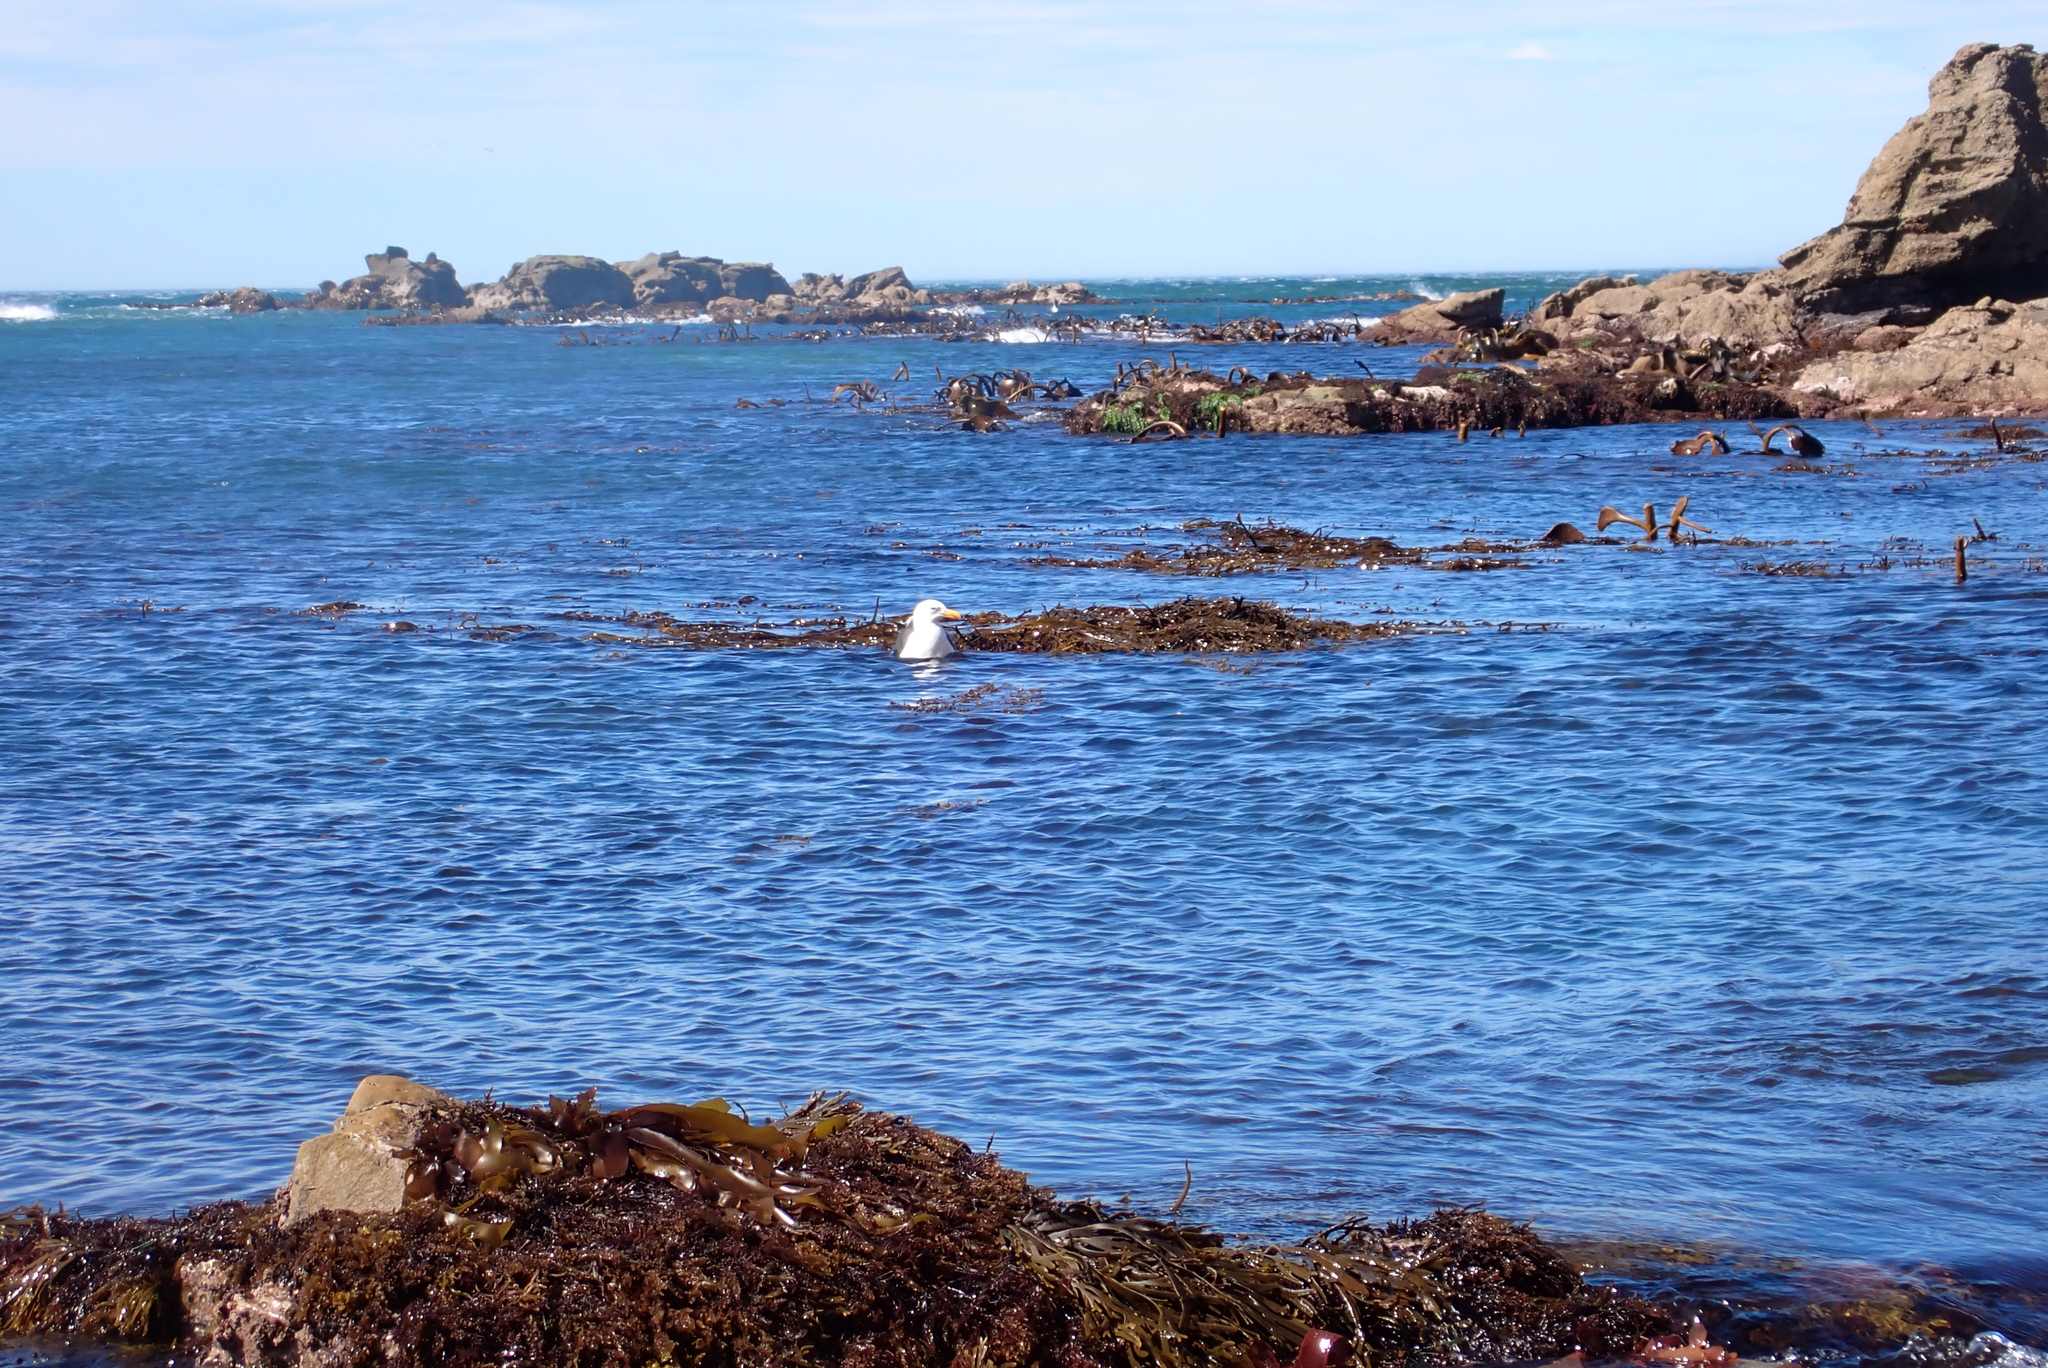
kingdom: Animalia
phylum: Chordata
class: Aves
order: Charadriiformes
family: Laridae
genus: Larus
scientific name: Larus dominicanus
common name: Kelp gull
